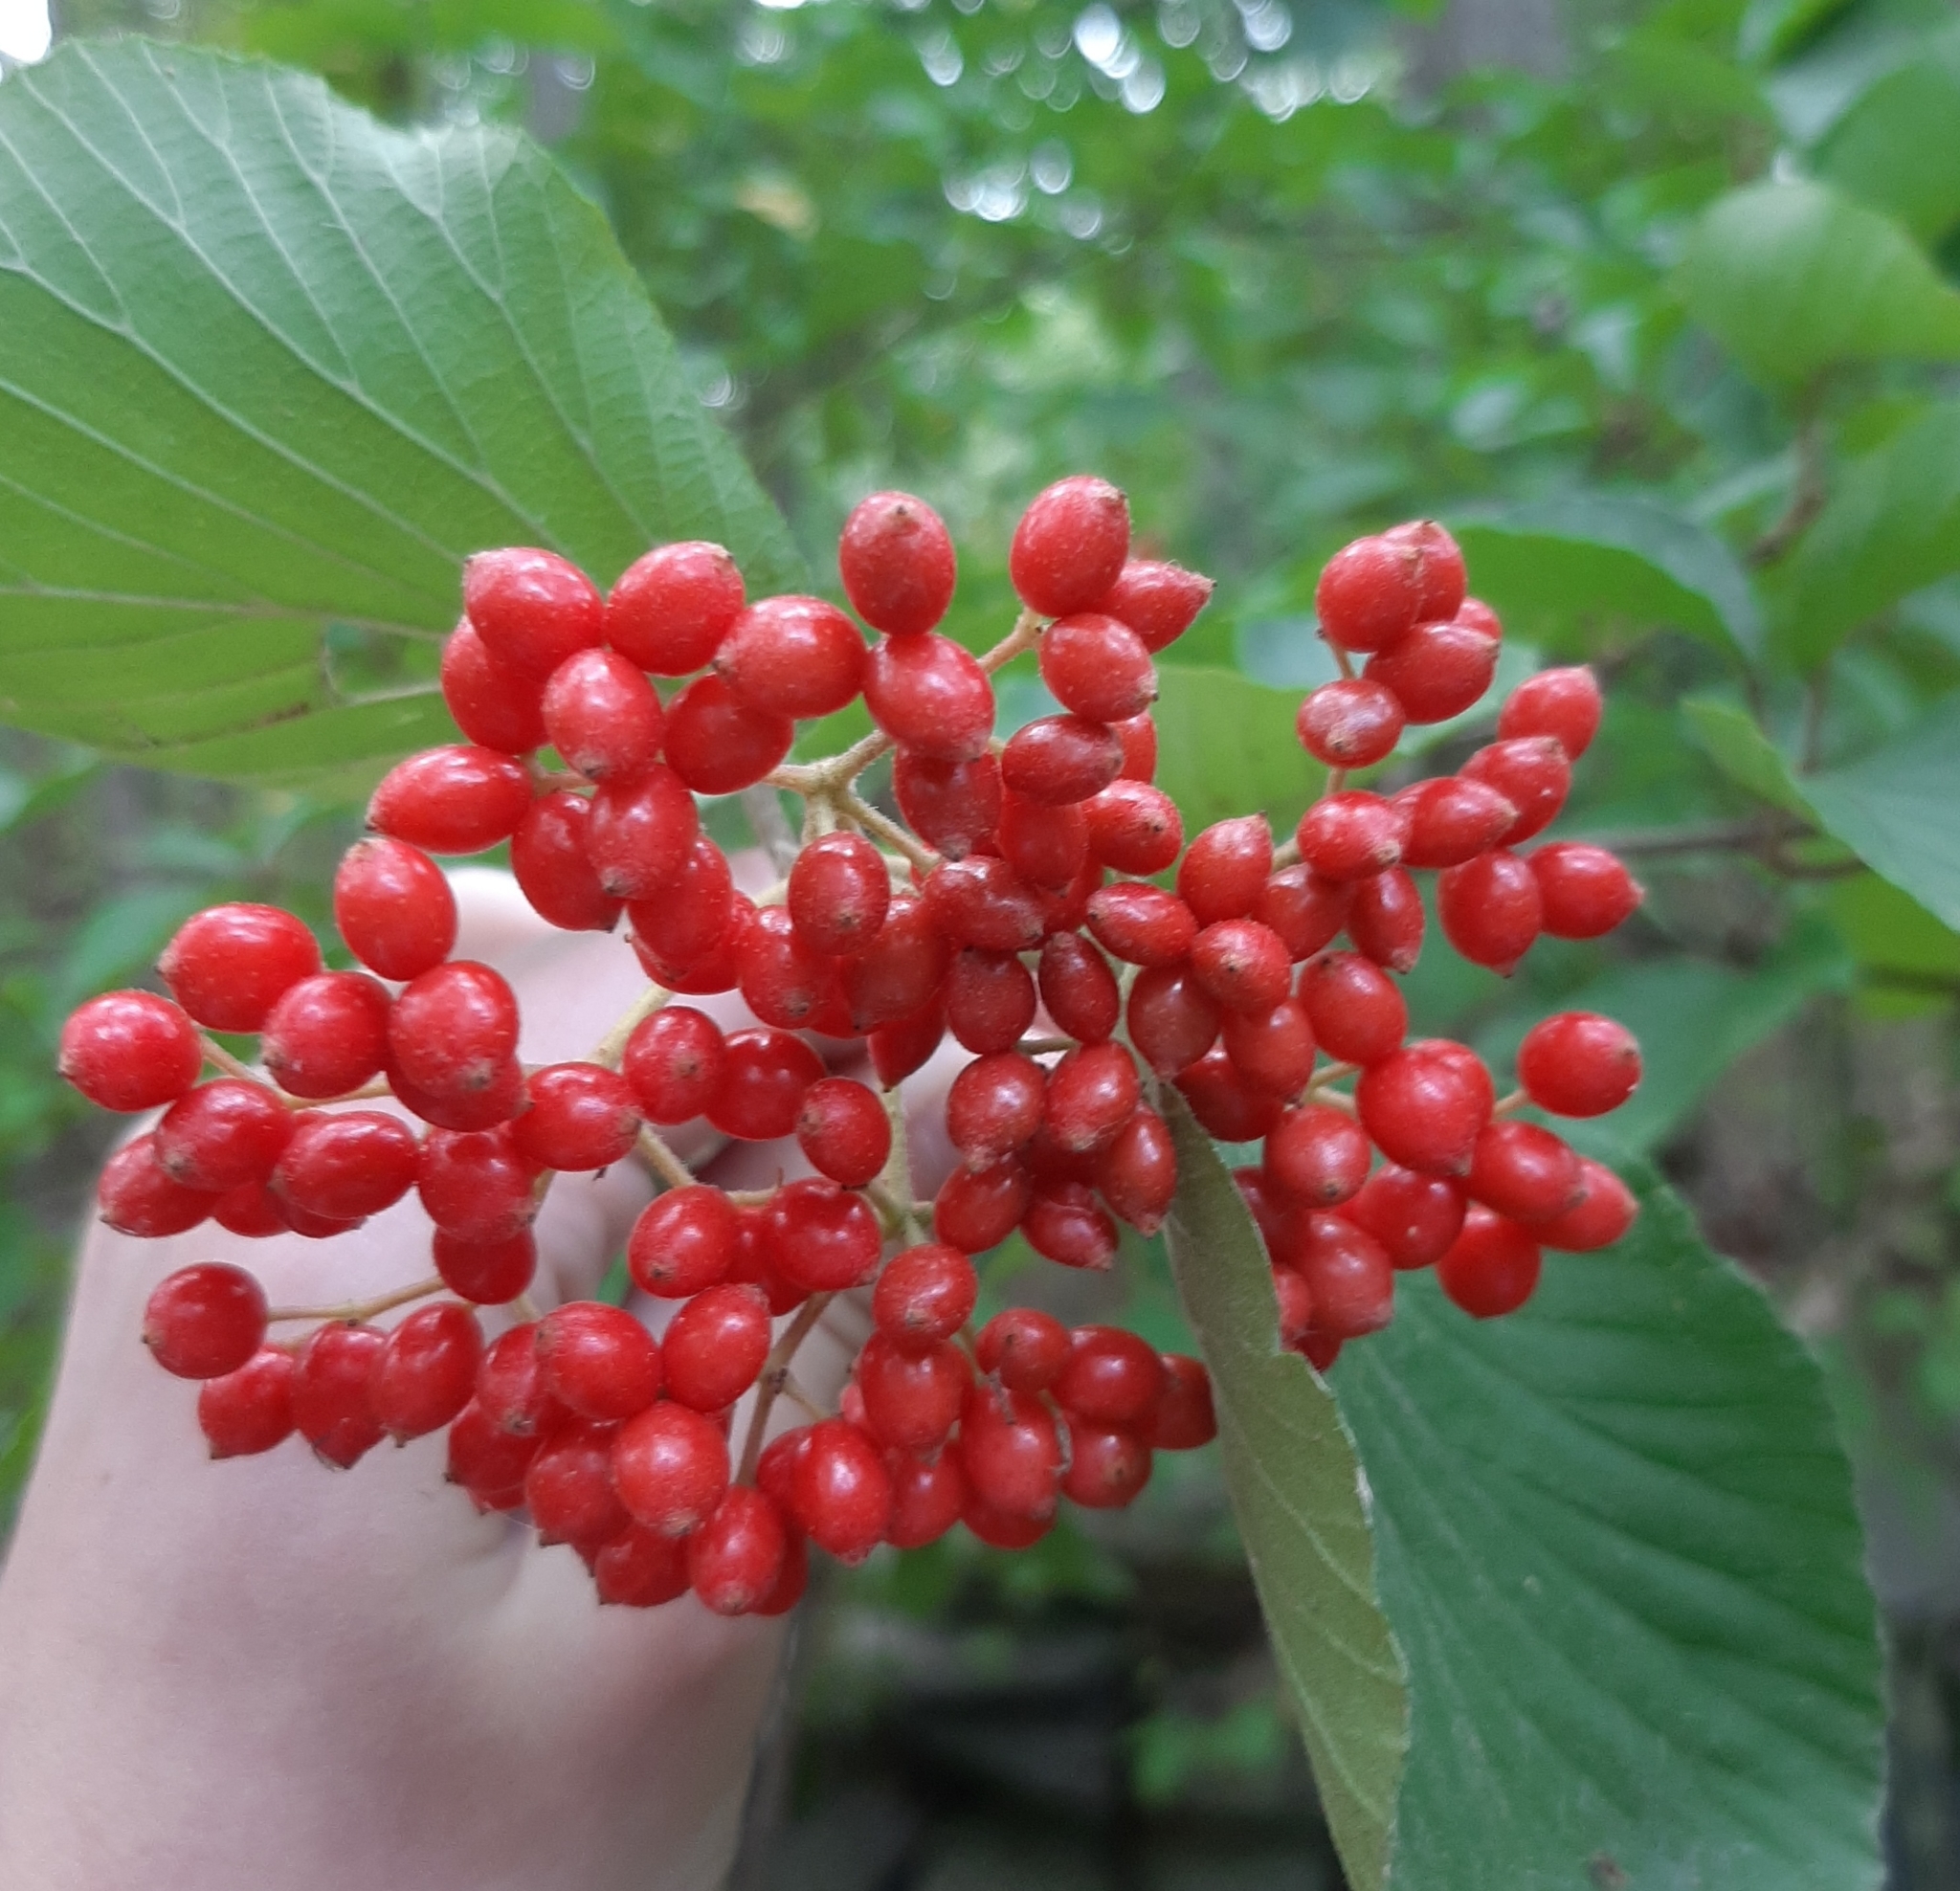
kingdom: Plantae
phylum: Tracheophyta
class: Magnoliopsida
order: Dipsacales
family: Viburnaceae
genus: Viburnum
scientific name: Viburnum dilatatum
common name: Linden arrowwood
